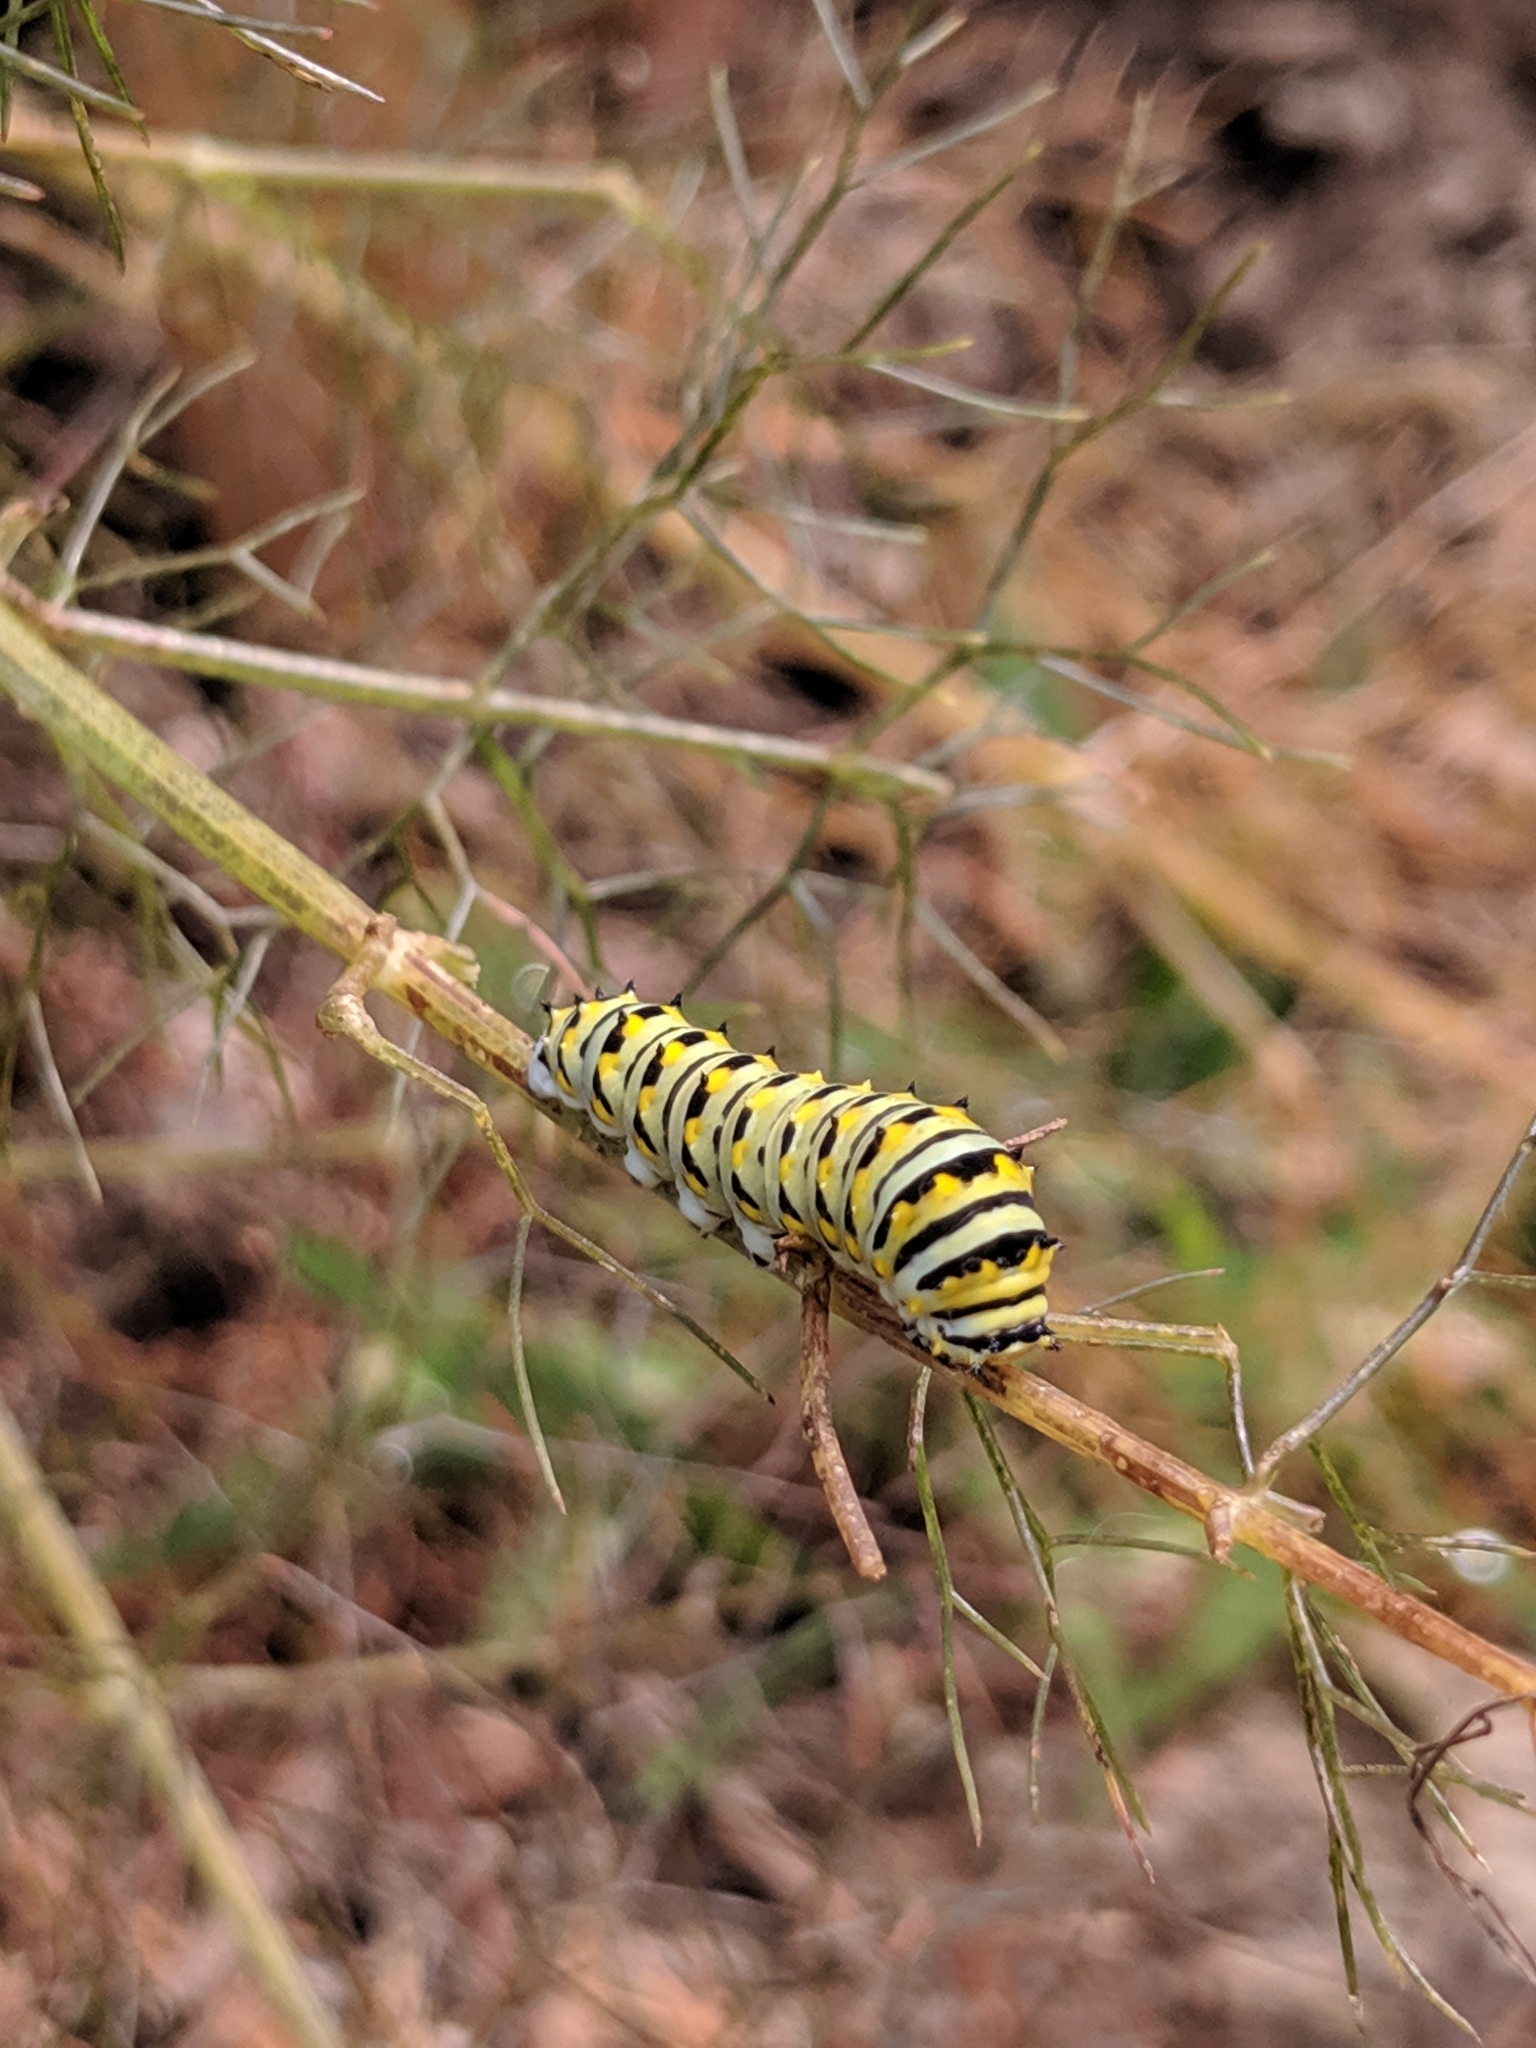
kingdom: Animalia
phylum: Arthropoda
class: Insecta
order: Lepidoptera
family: Papilionidae
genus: Papilio
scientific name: Papilio polyxenes
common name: Black swallowtail
